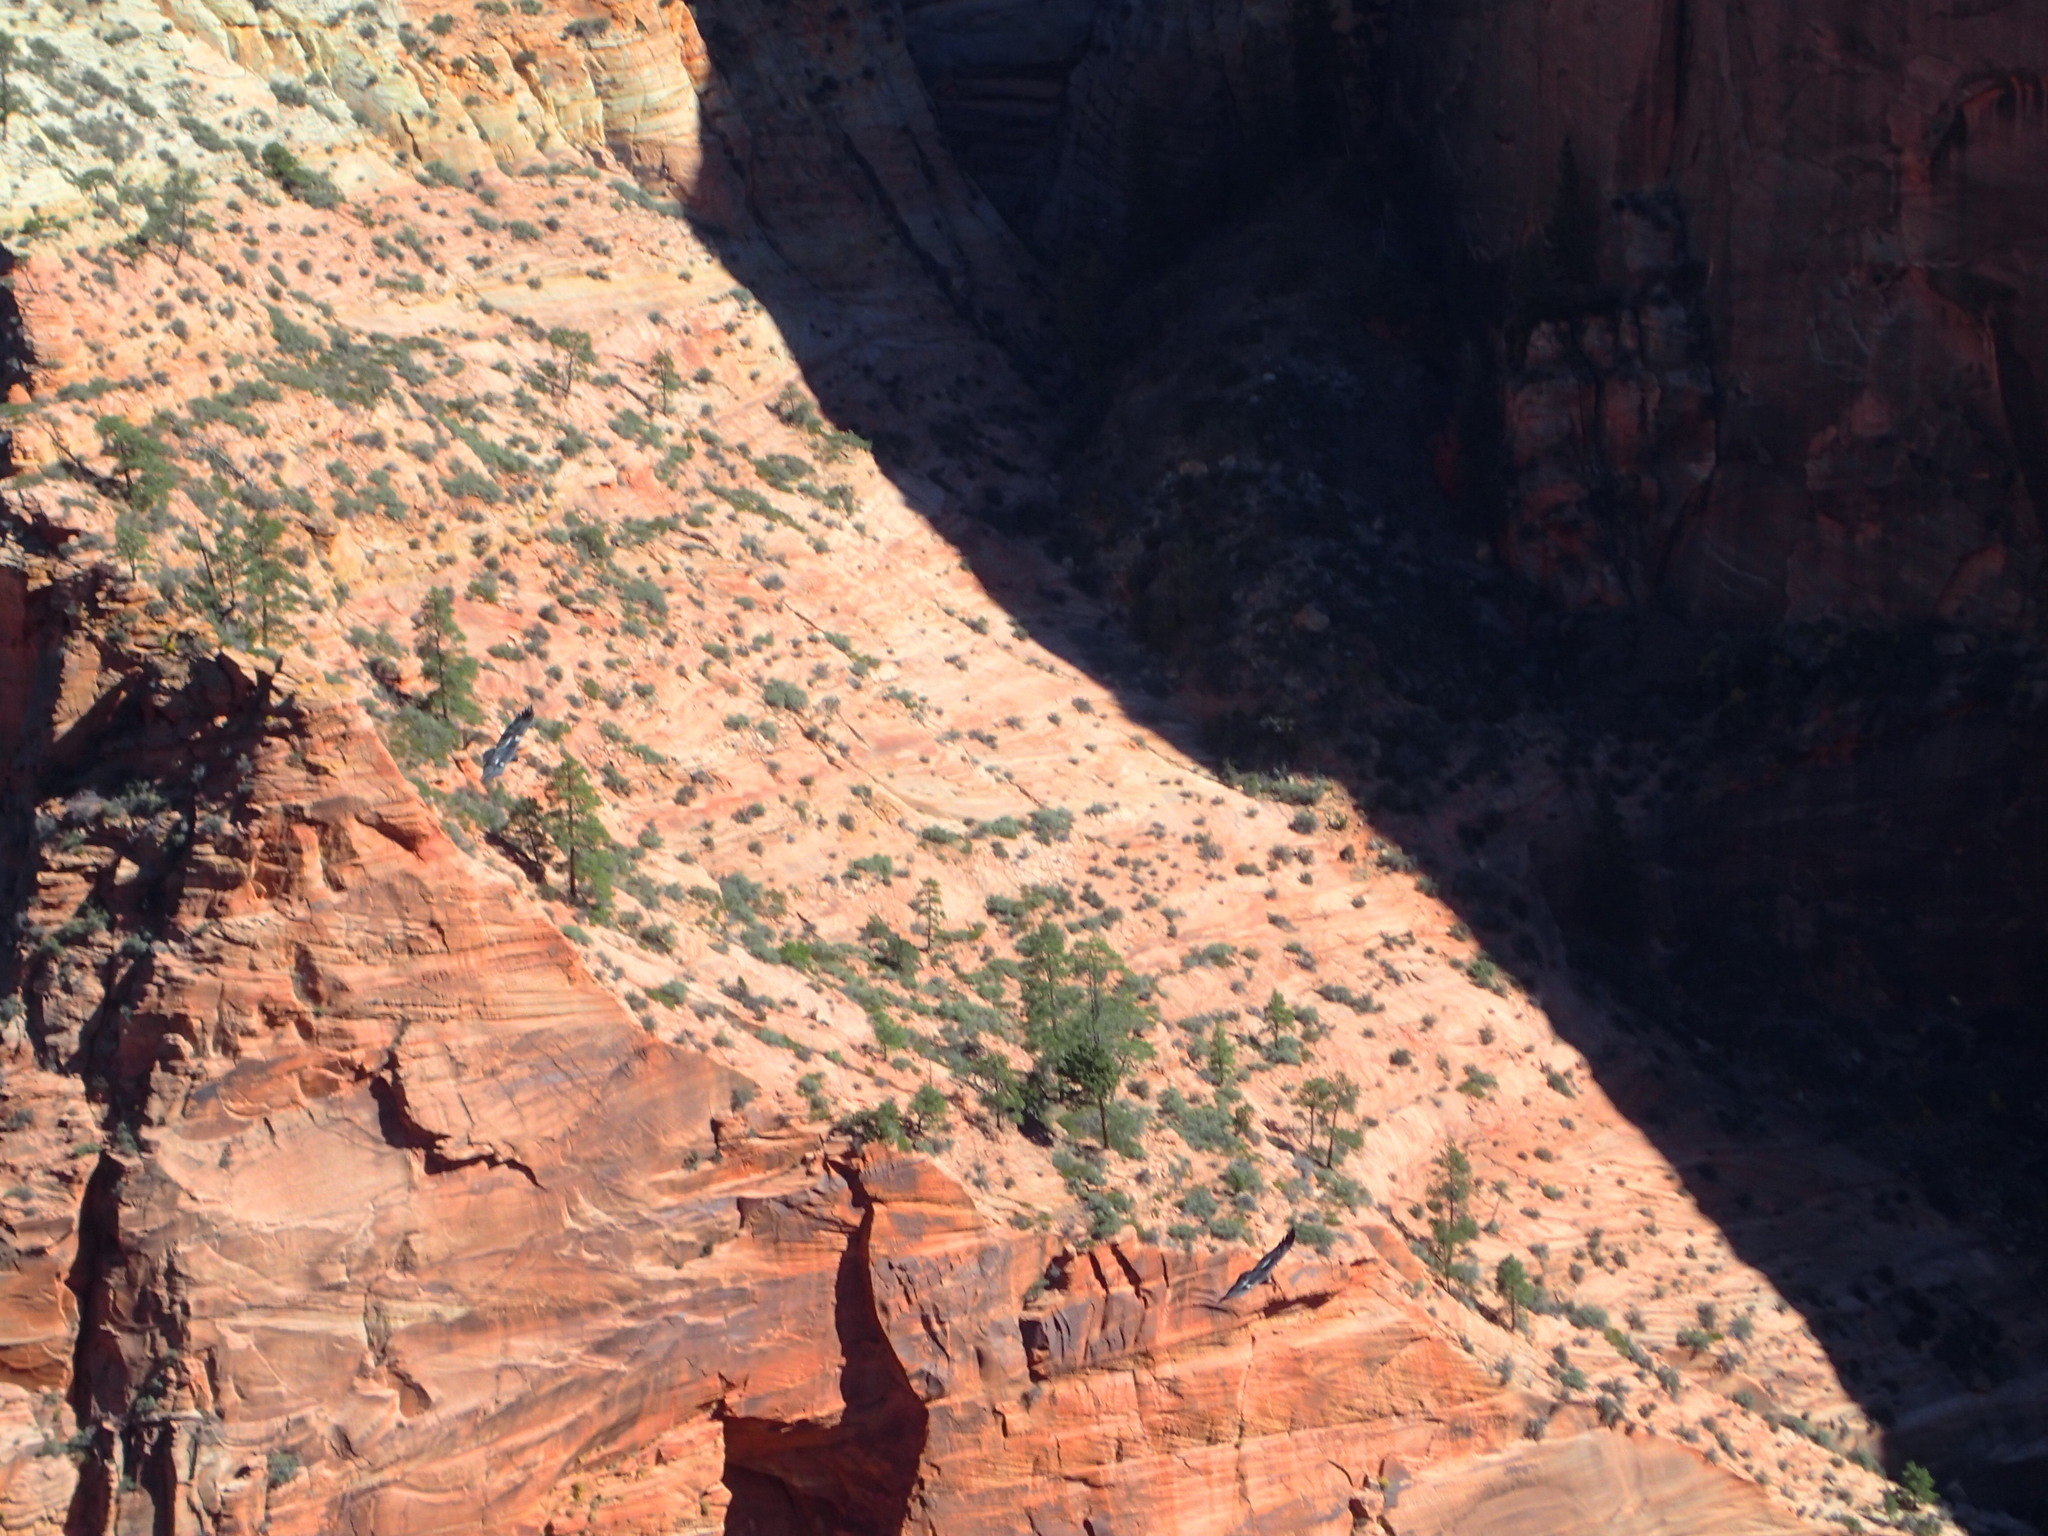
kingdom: Animalia
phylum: Chordata
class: Aves
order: Accipitriformes
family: Cathartidae
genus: Gymnogyps
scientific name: Gymnogyps californianus
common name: California condor
